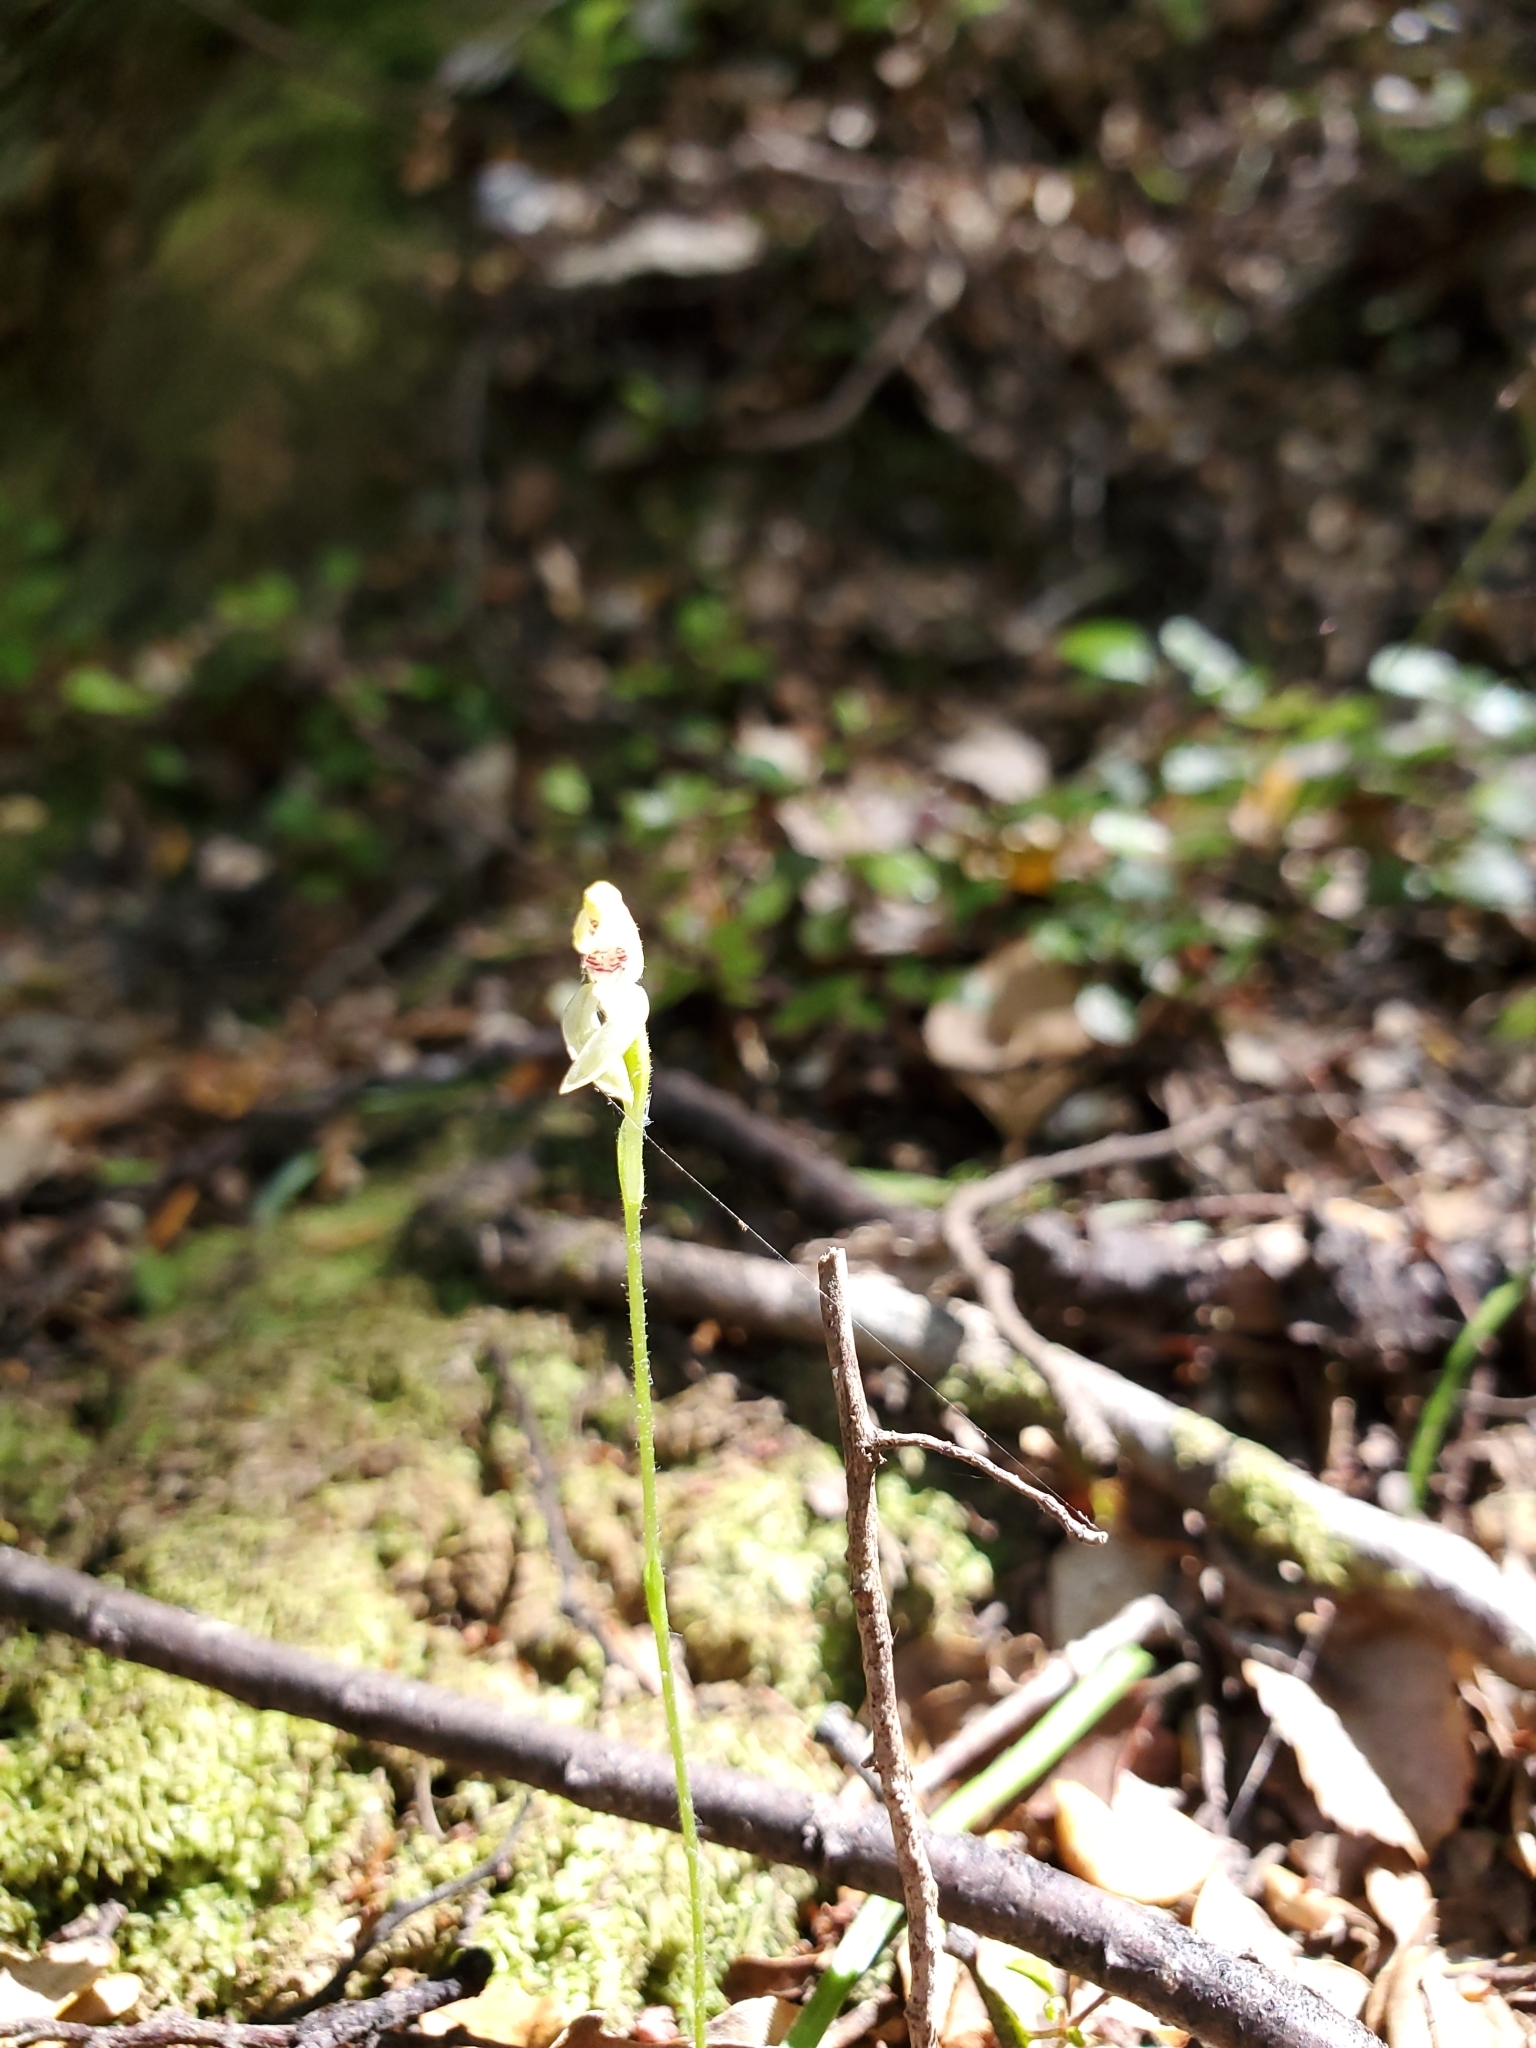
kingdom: Plantae
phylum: Tracheophyta
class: Liliopsida
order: Asparagales
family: Orchidaceae
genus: Caladenia
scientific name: Caladenia chlorostyla
